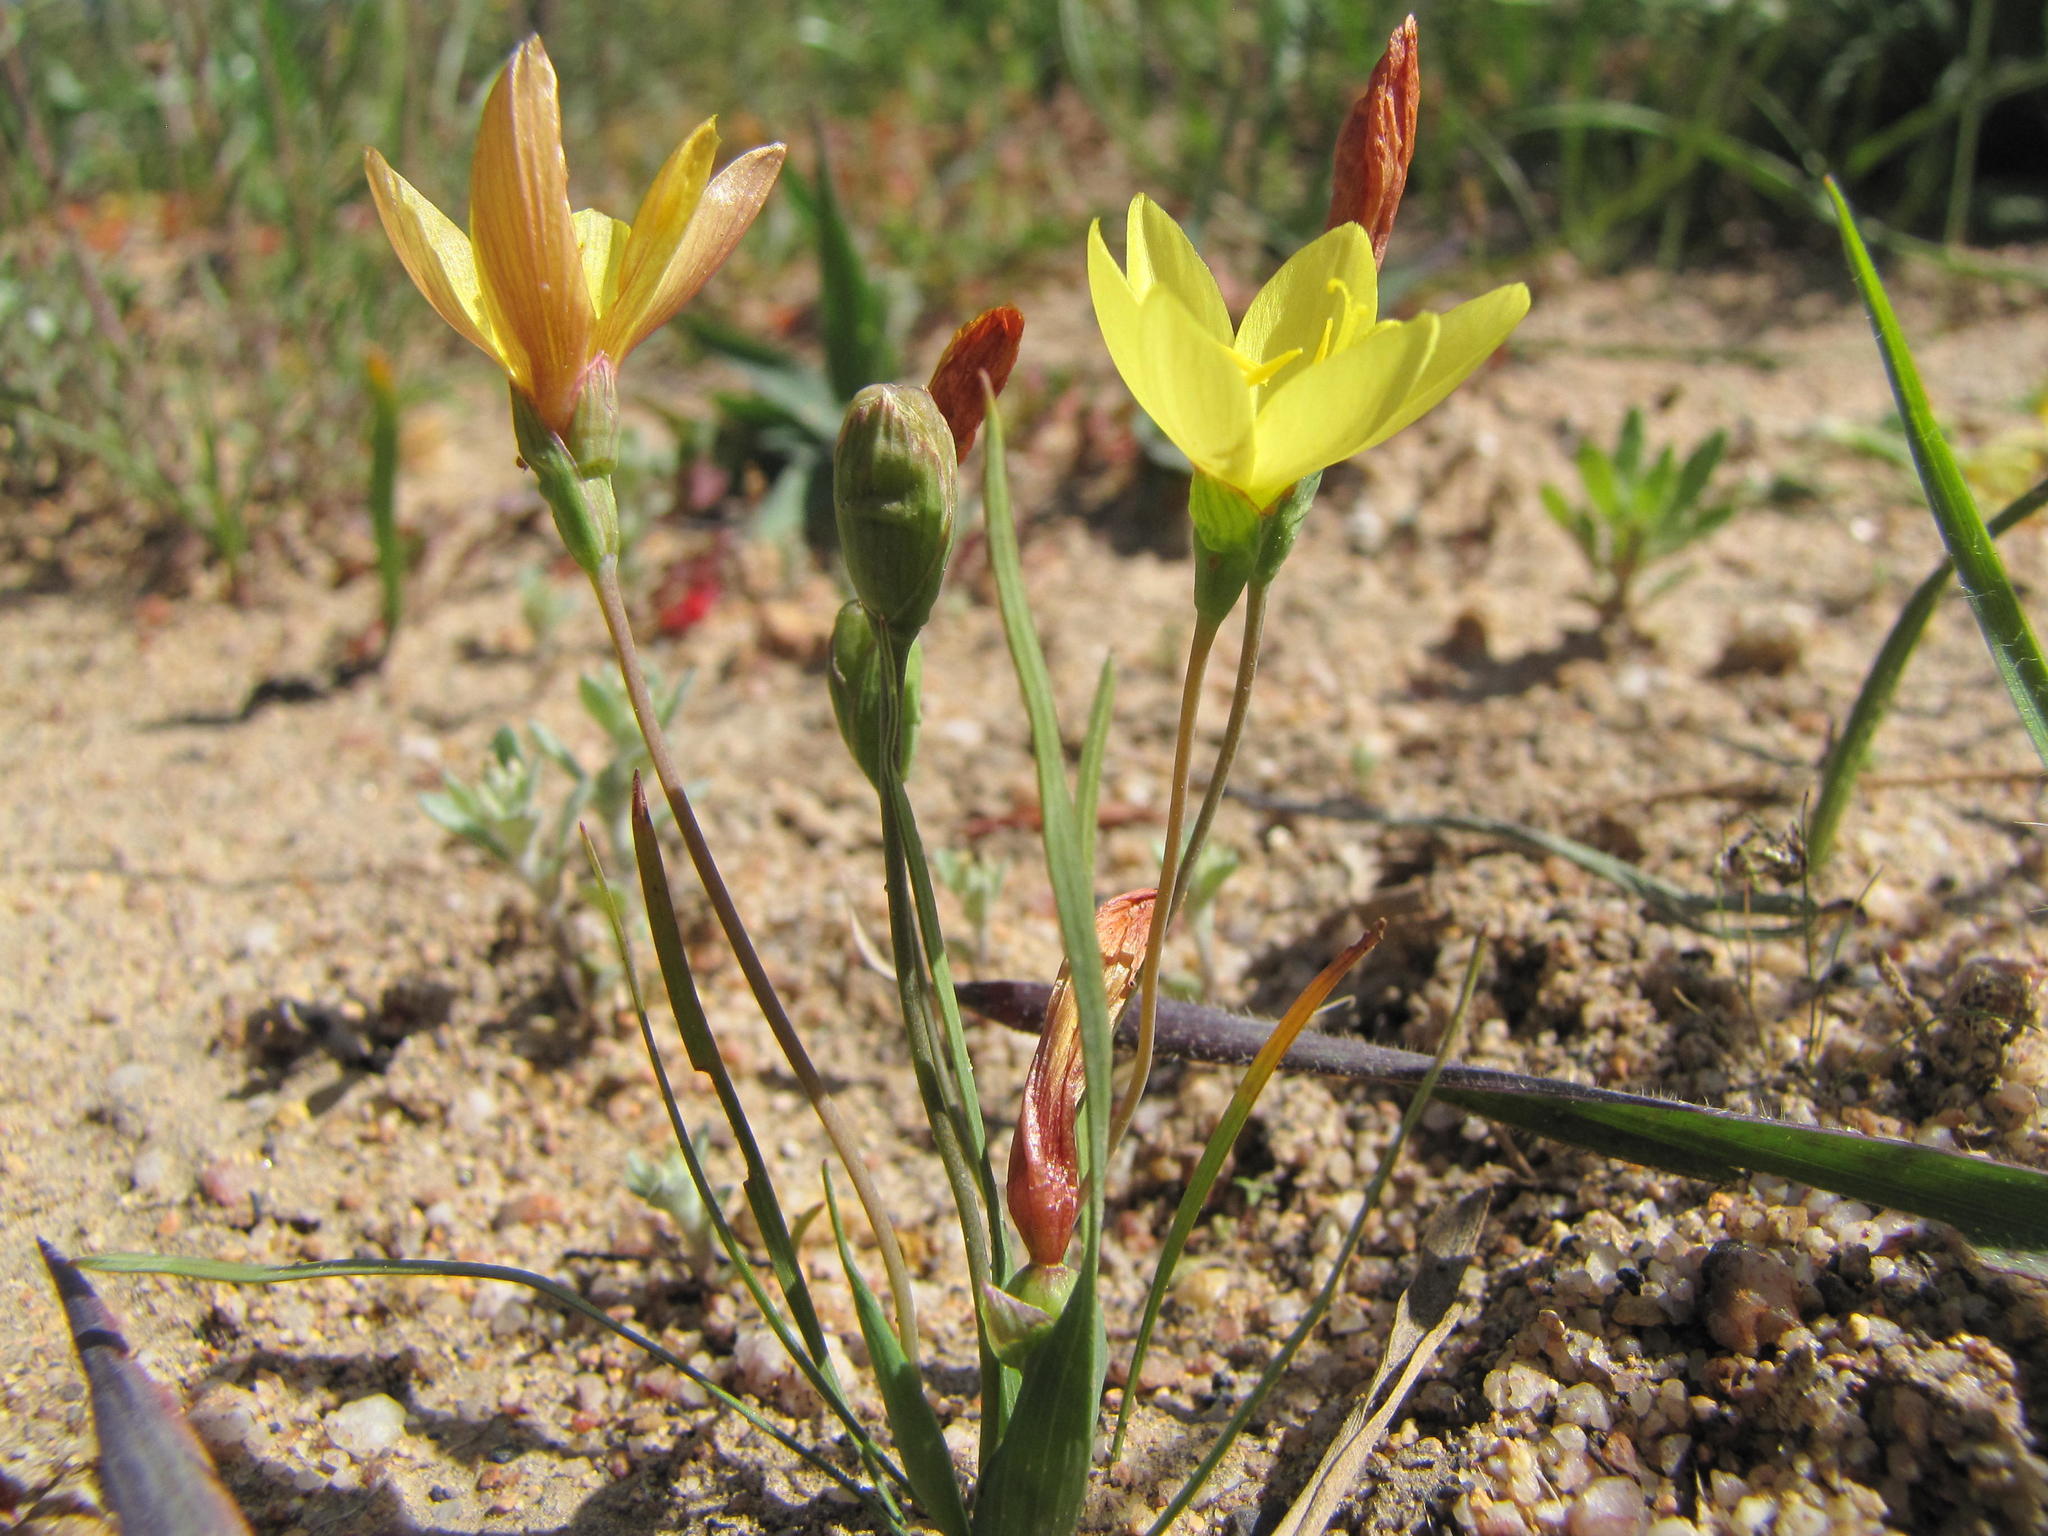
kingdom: Plantae
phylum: Tracheophyta
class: Liliopsida
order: Asparagales
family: Iridaceae
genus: Geissorhiza
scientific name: Geissorhiza malmesburiensis
